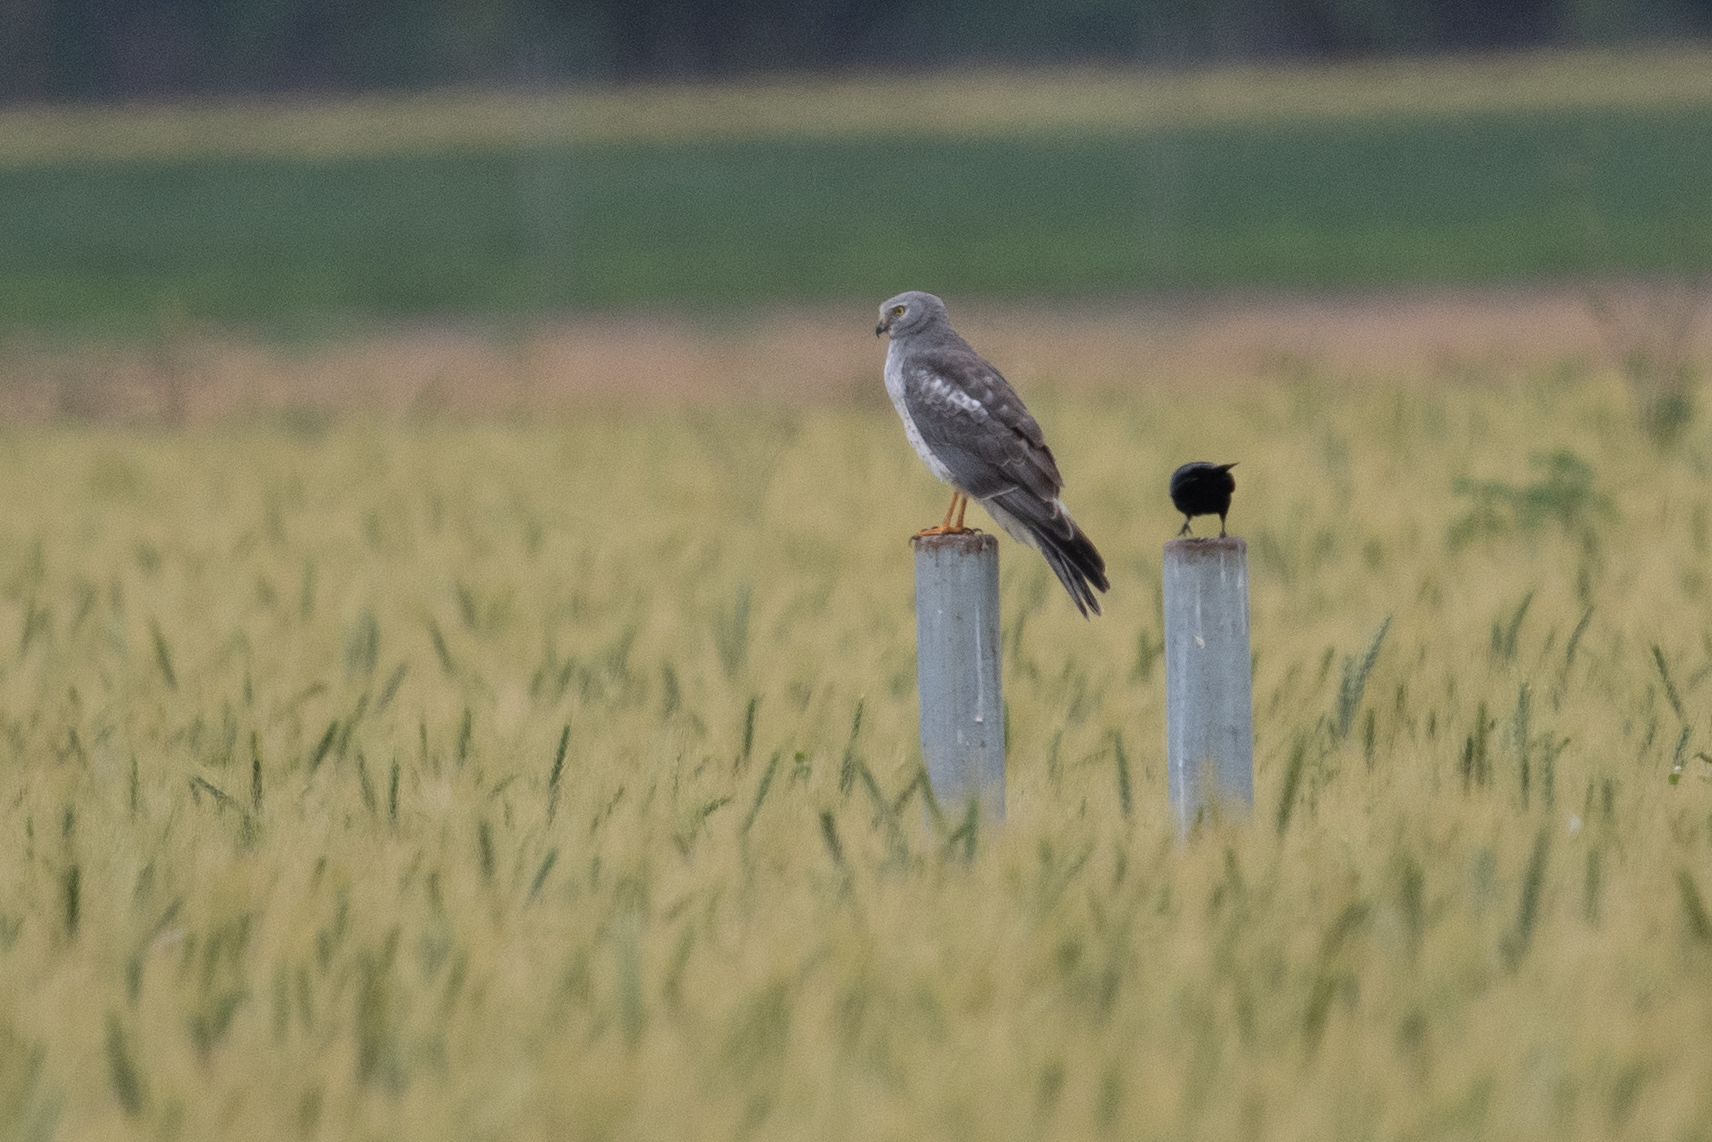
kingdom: Animalia
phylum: Chordata
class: Aves
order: Accipitriformes
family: Accipitridae
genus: Circus
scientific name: Circus cyaneus
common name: Hen harrier
